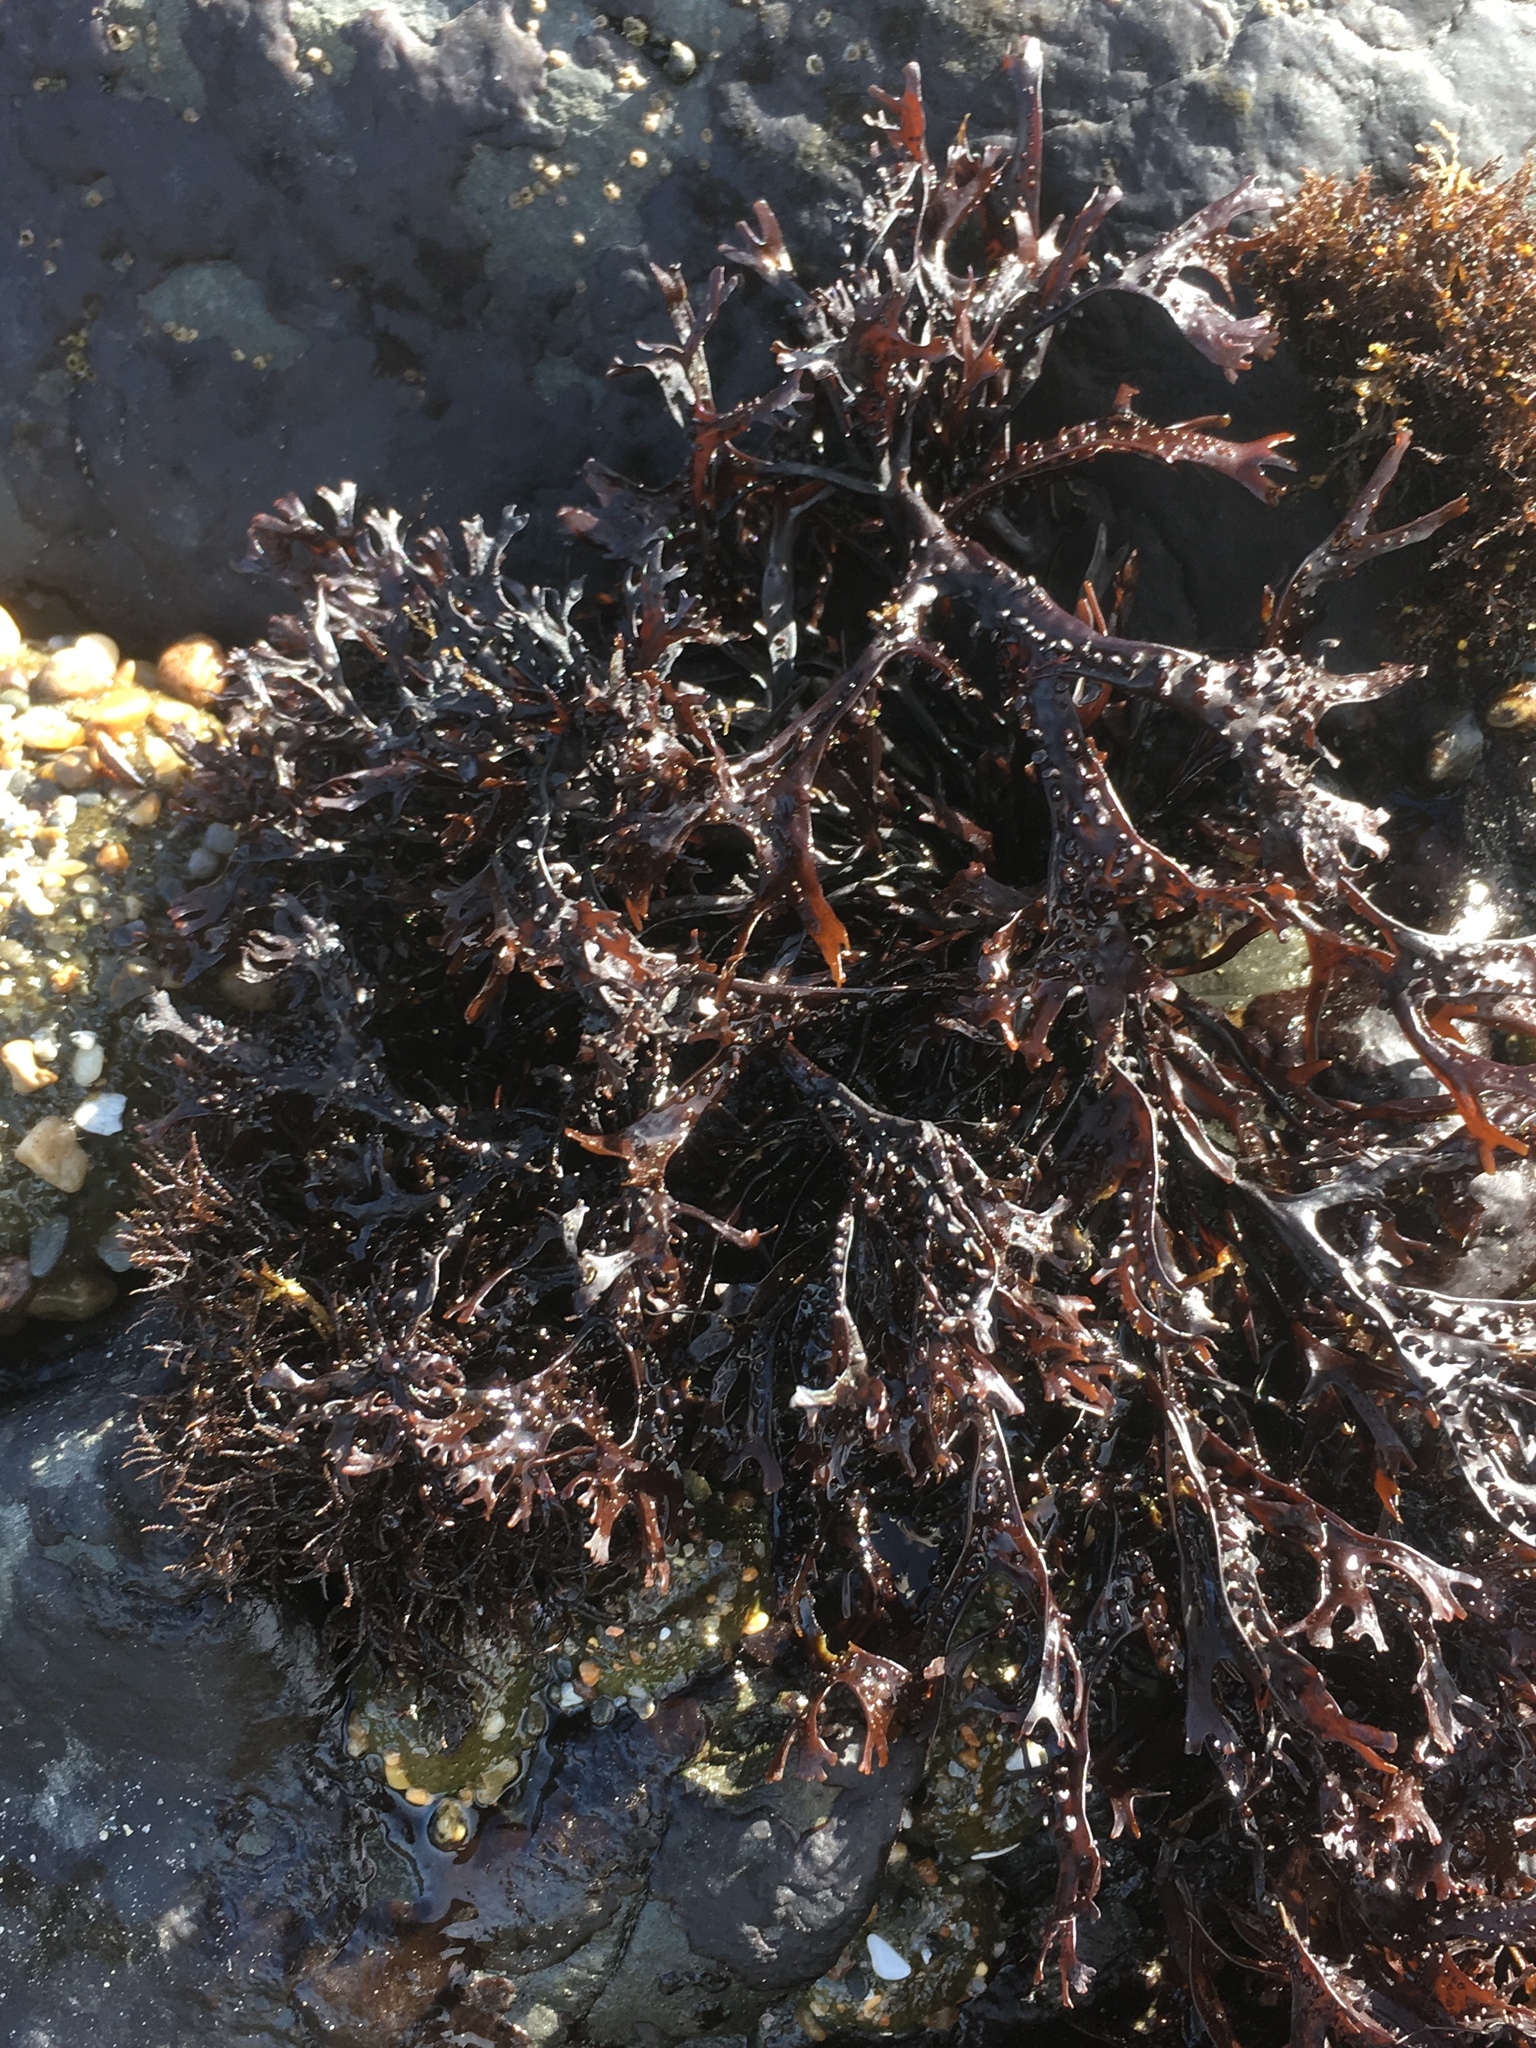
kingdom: Plantae
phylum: Rhodophyta
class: Florideophyceae
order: Gigartinales
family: Phyllophoraceae
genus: Mastocarpus
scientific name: Mastocarpus papillatus
